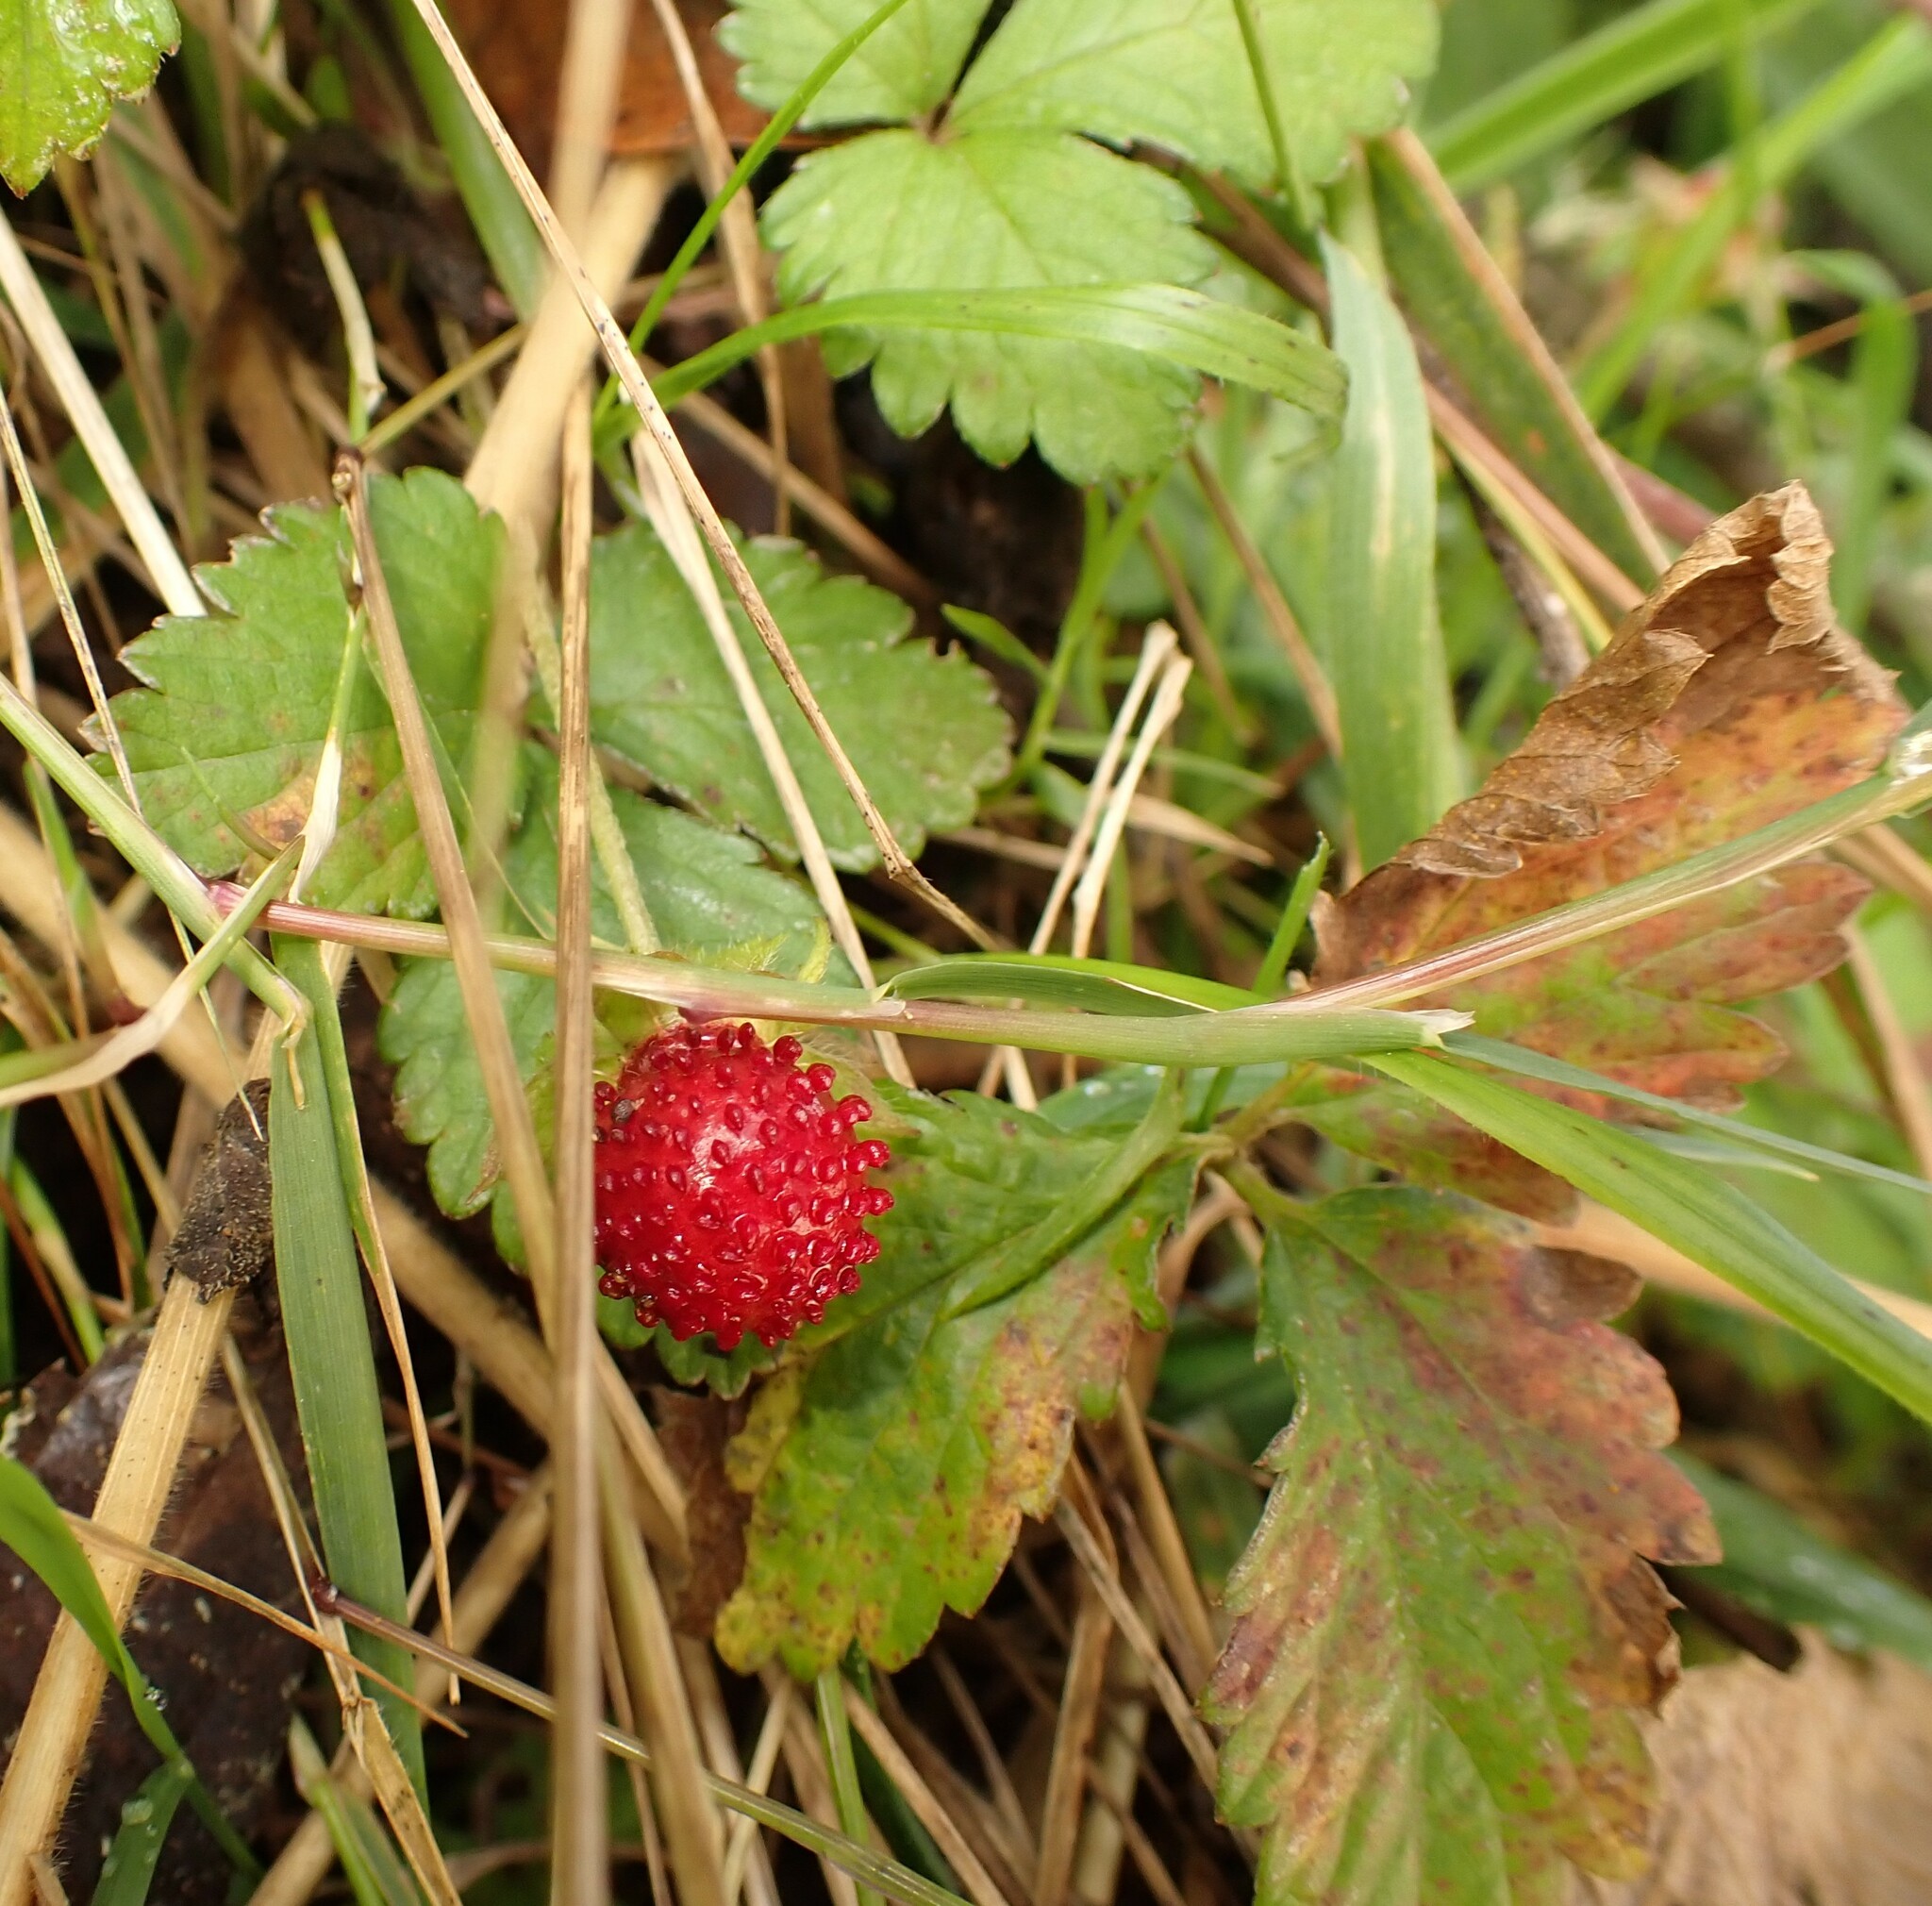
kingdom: Plantae
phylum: Tracheophyta
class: Magnoliopsida
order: Rosales
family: Rosaceae
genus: Potentilla
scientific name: Potentilla indica
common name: Yellow-flowered strawberry
